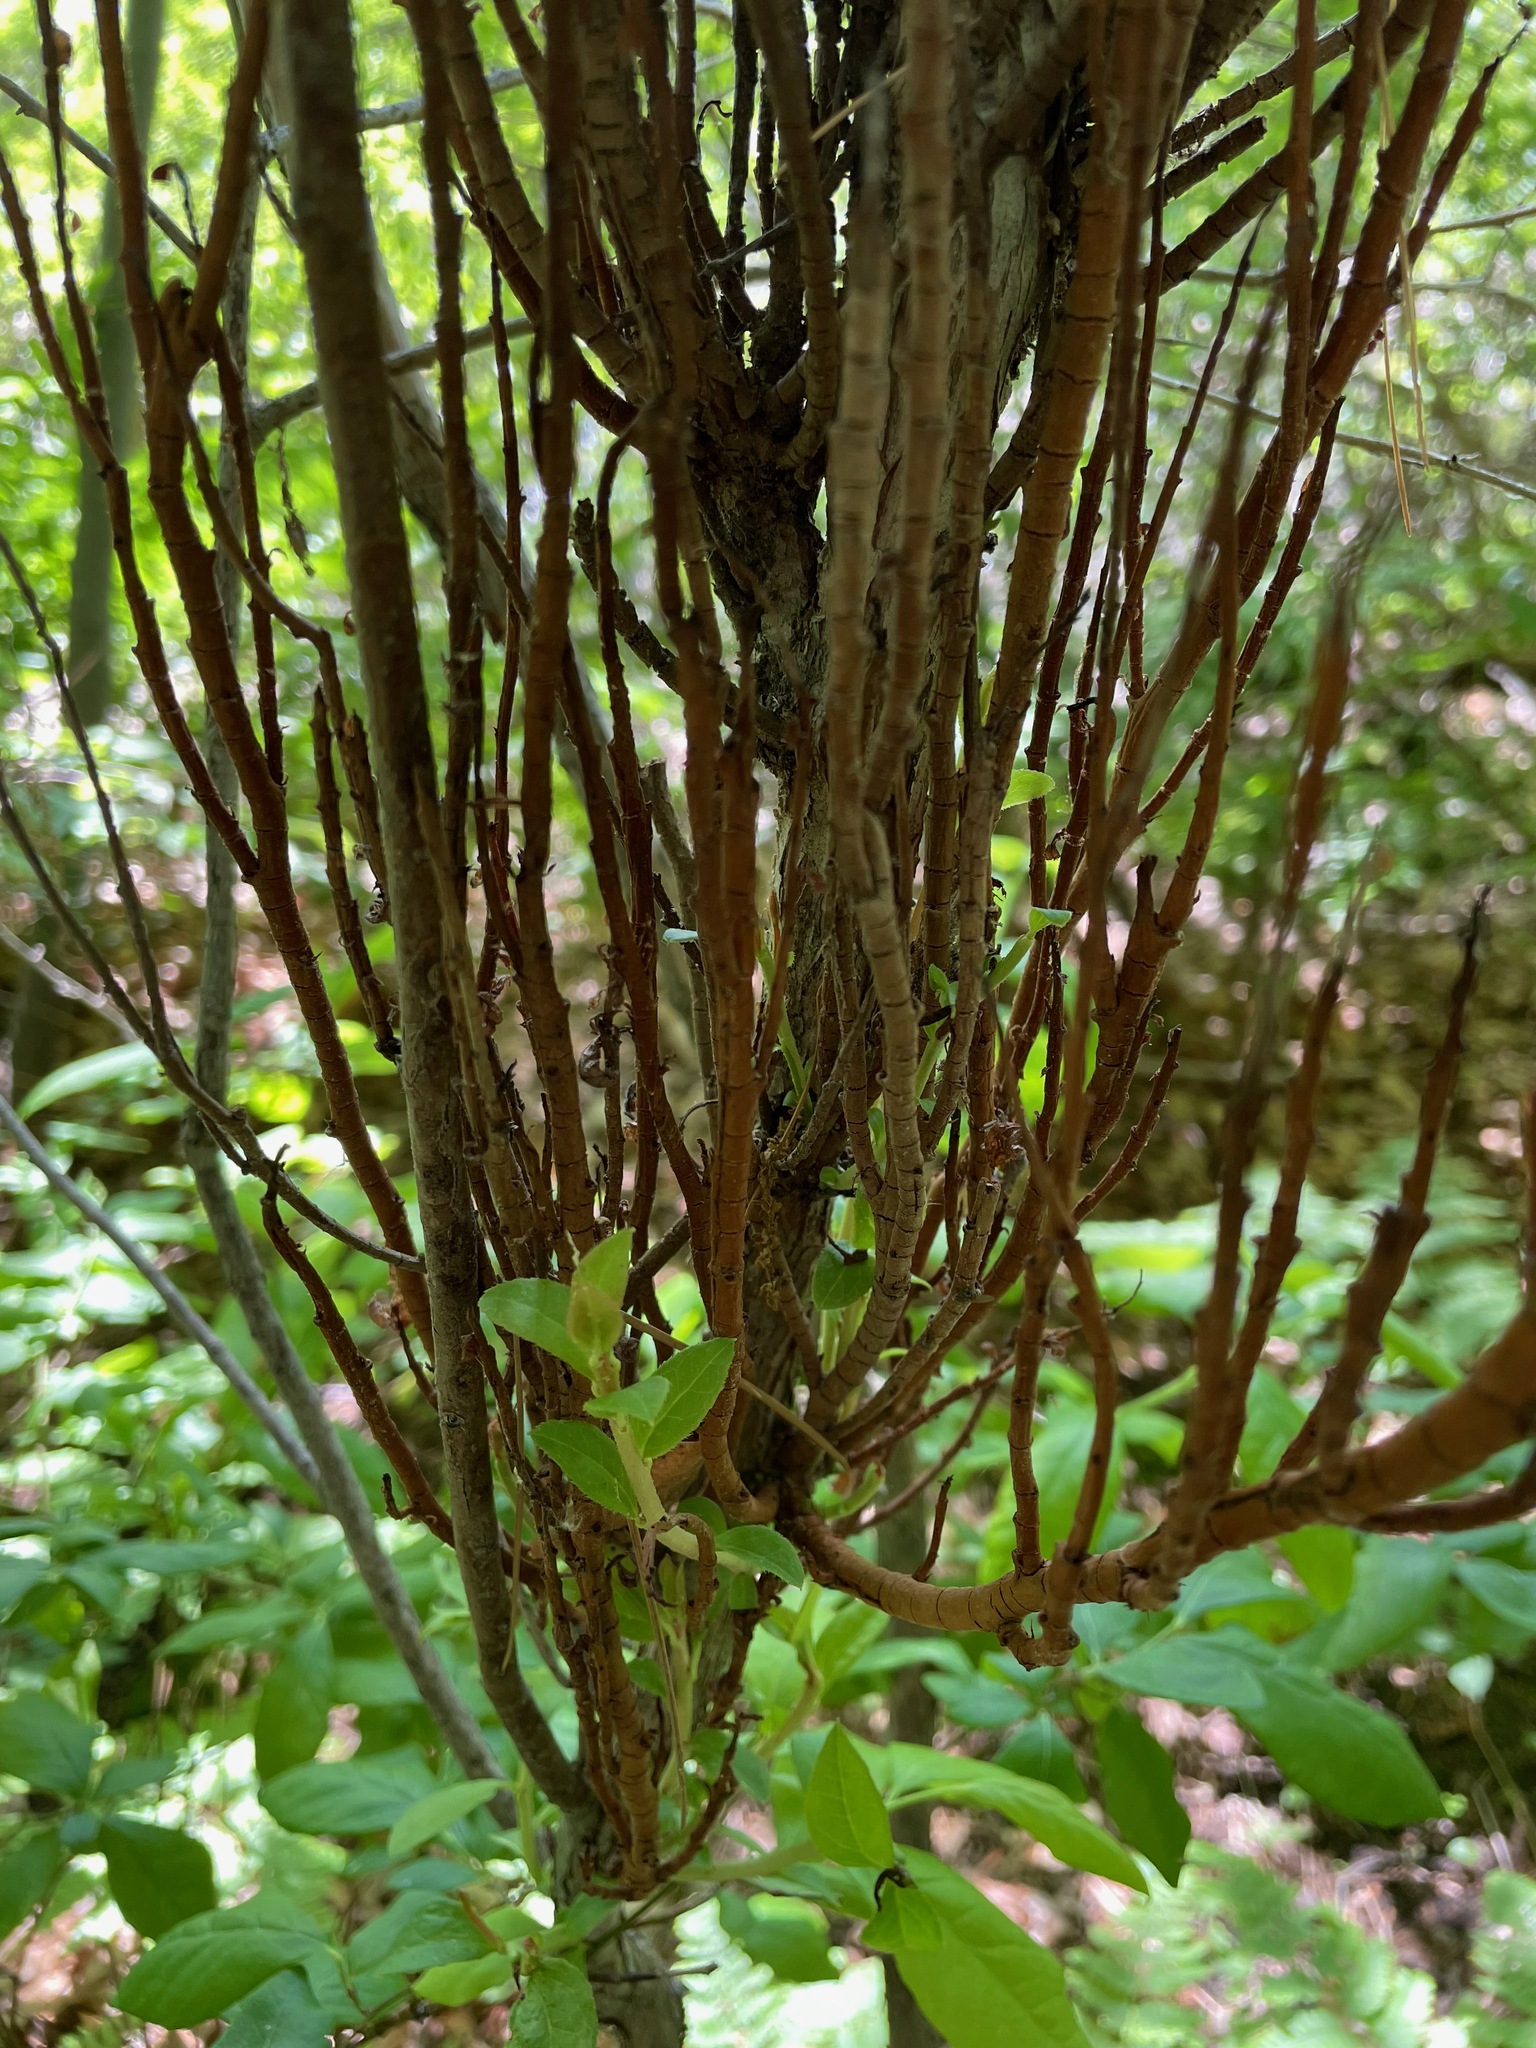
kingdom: Fungi
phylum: Basidiomycota
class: Pucciniomycetes
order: Pucciniales
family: Pucciniastraceae
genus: Calyptospora
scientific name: Calyptospora columnaris
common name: Huckleberry broom rust fungus
